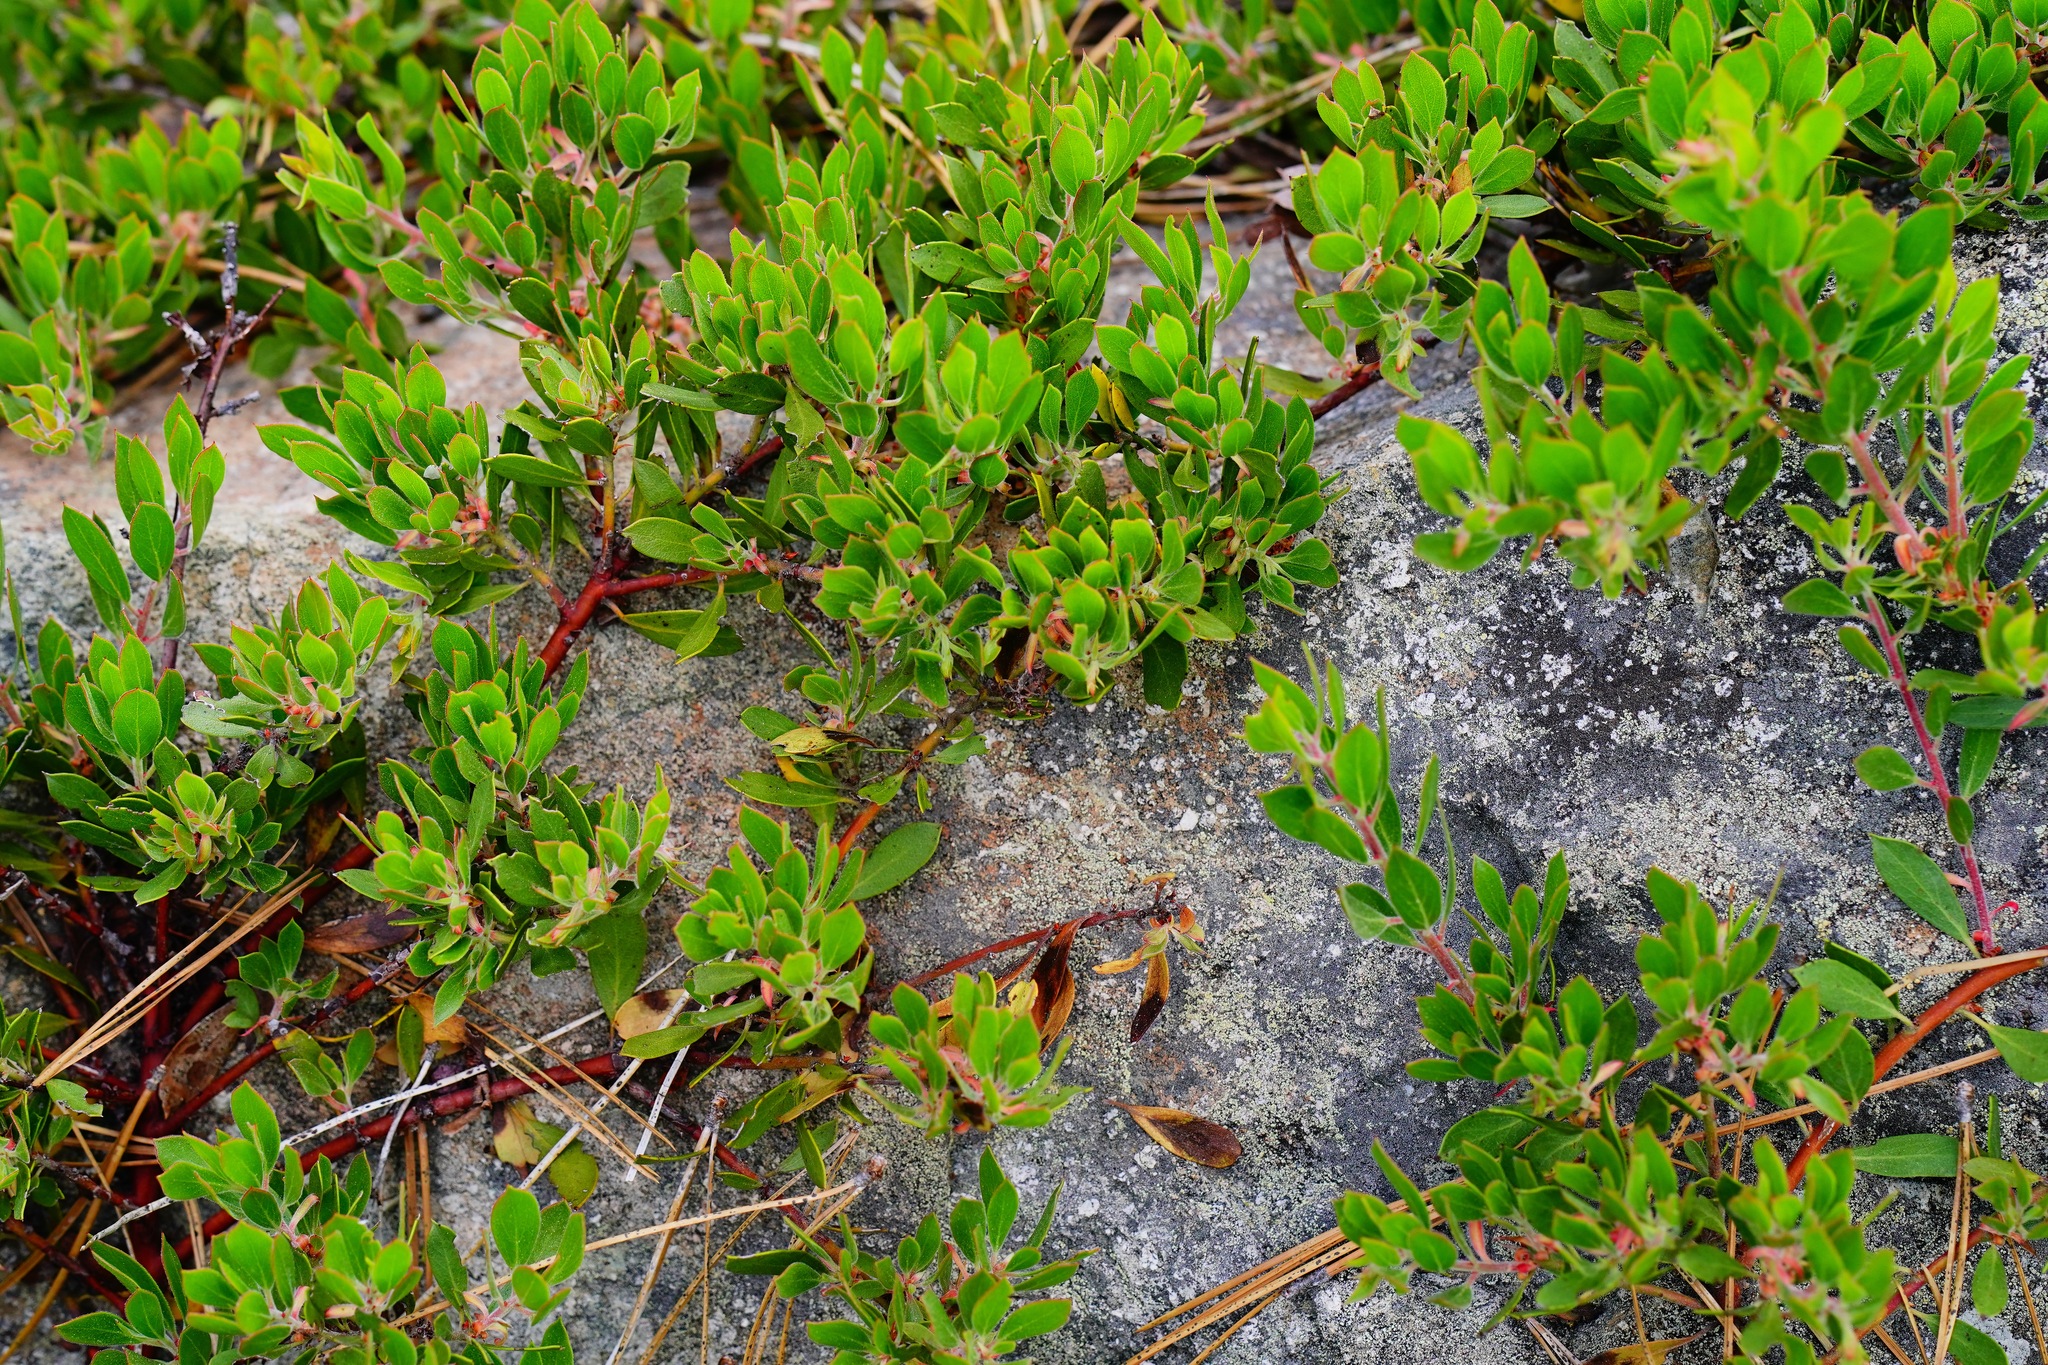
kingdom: Plantae
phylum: Tracheophyta
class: Magnoliopsida
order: Ericales
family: Ericaceae
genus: Arctostaphylos
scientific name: Arctostaphylos nevadensis
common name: Pinemat manzanita
